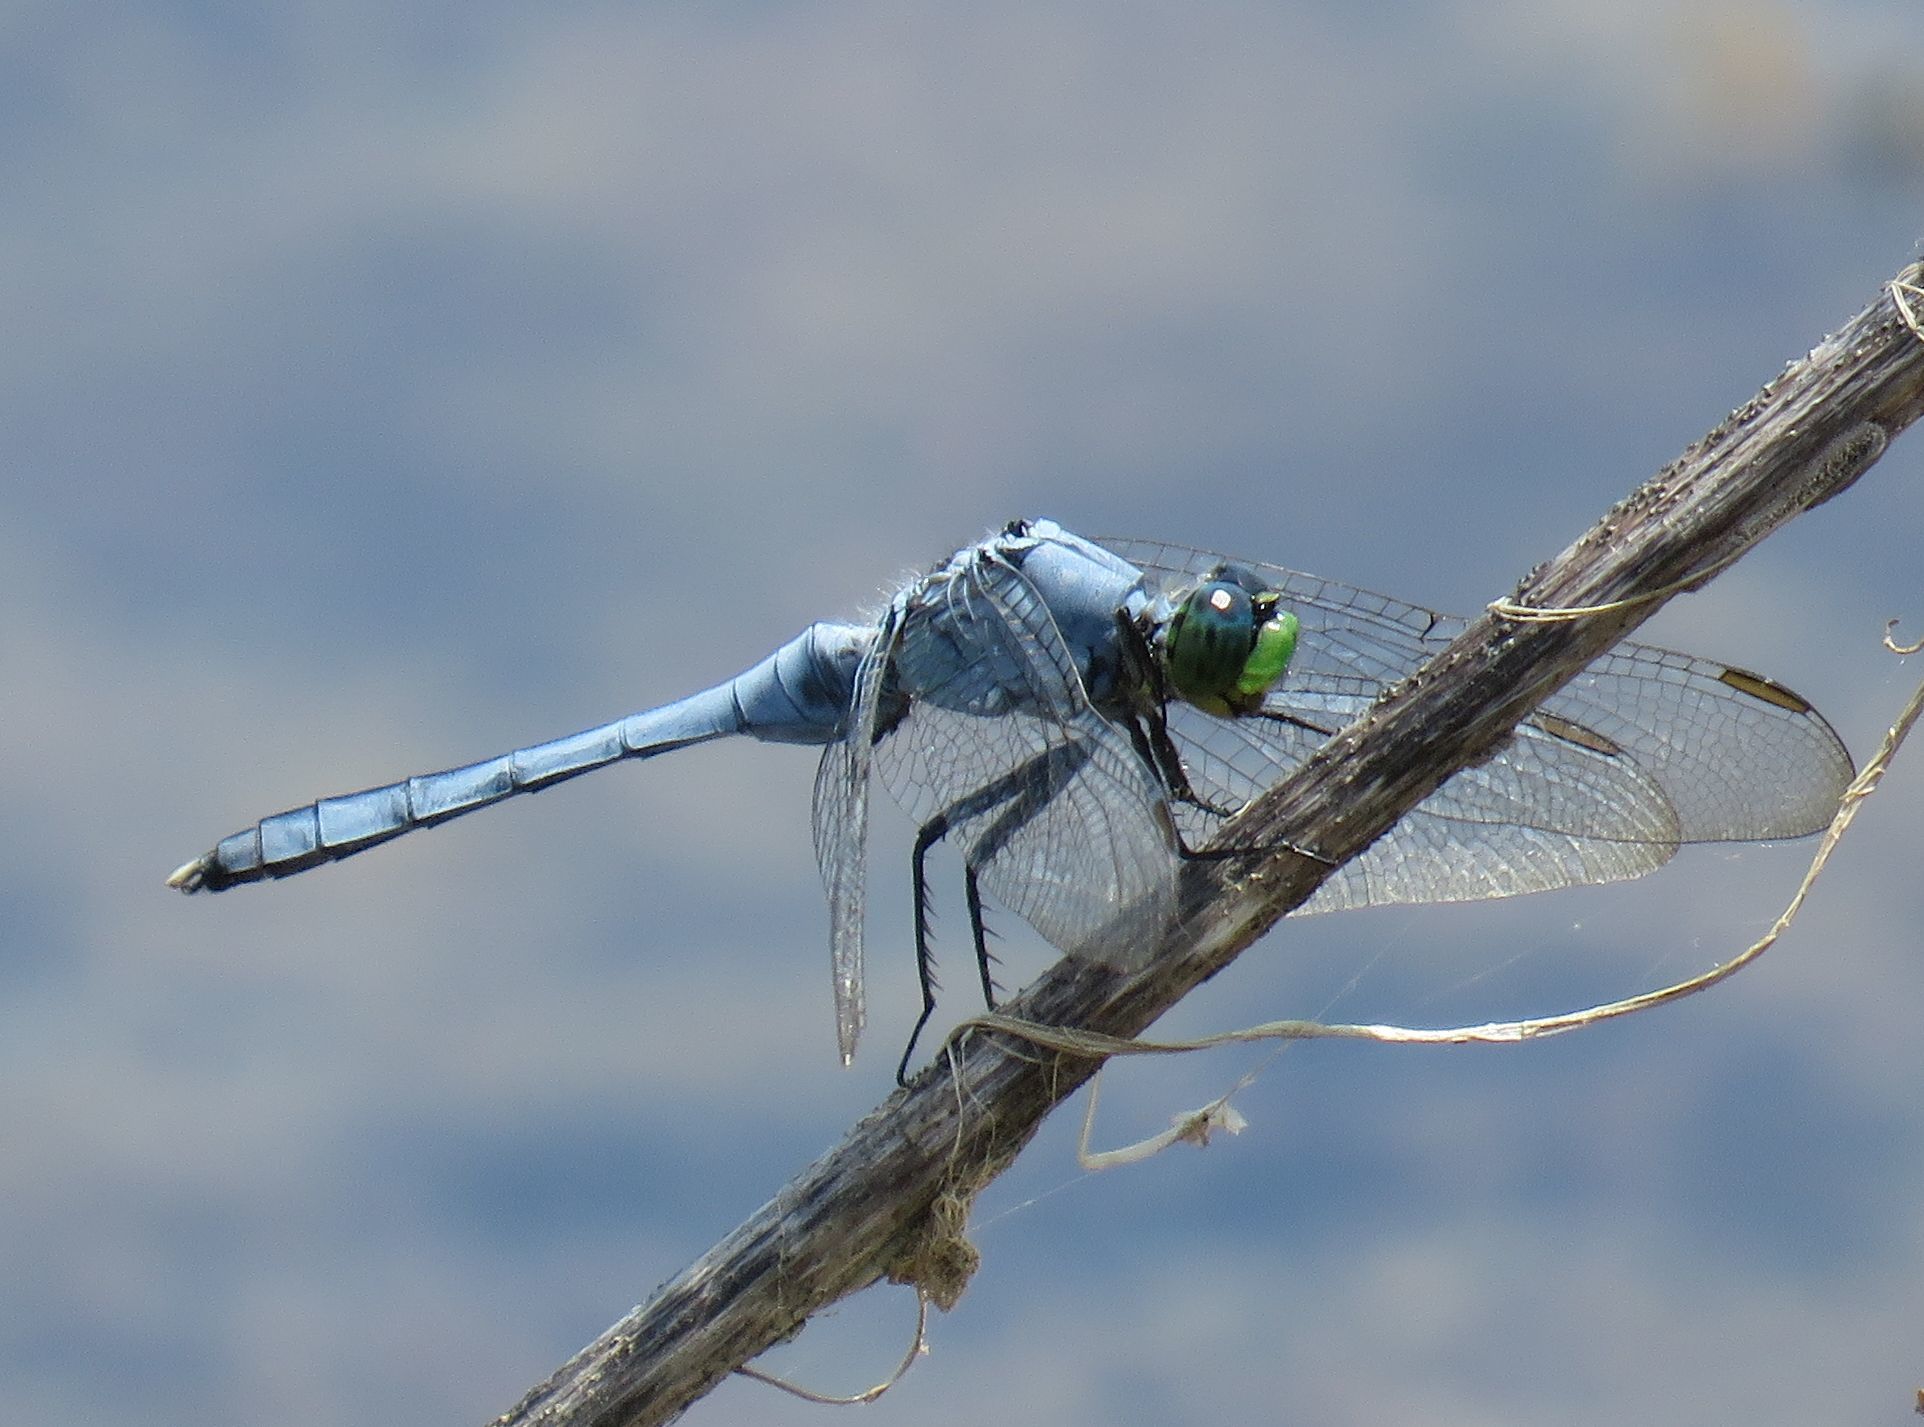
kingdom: Animalia
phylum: Arthropoda
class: Insecta
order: Odonata
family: Libellulidae
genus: Erythemis
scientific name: Erythemis simplicicollis
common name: Eastern pondhawk
